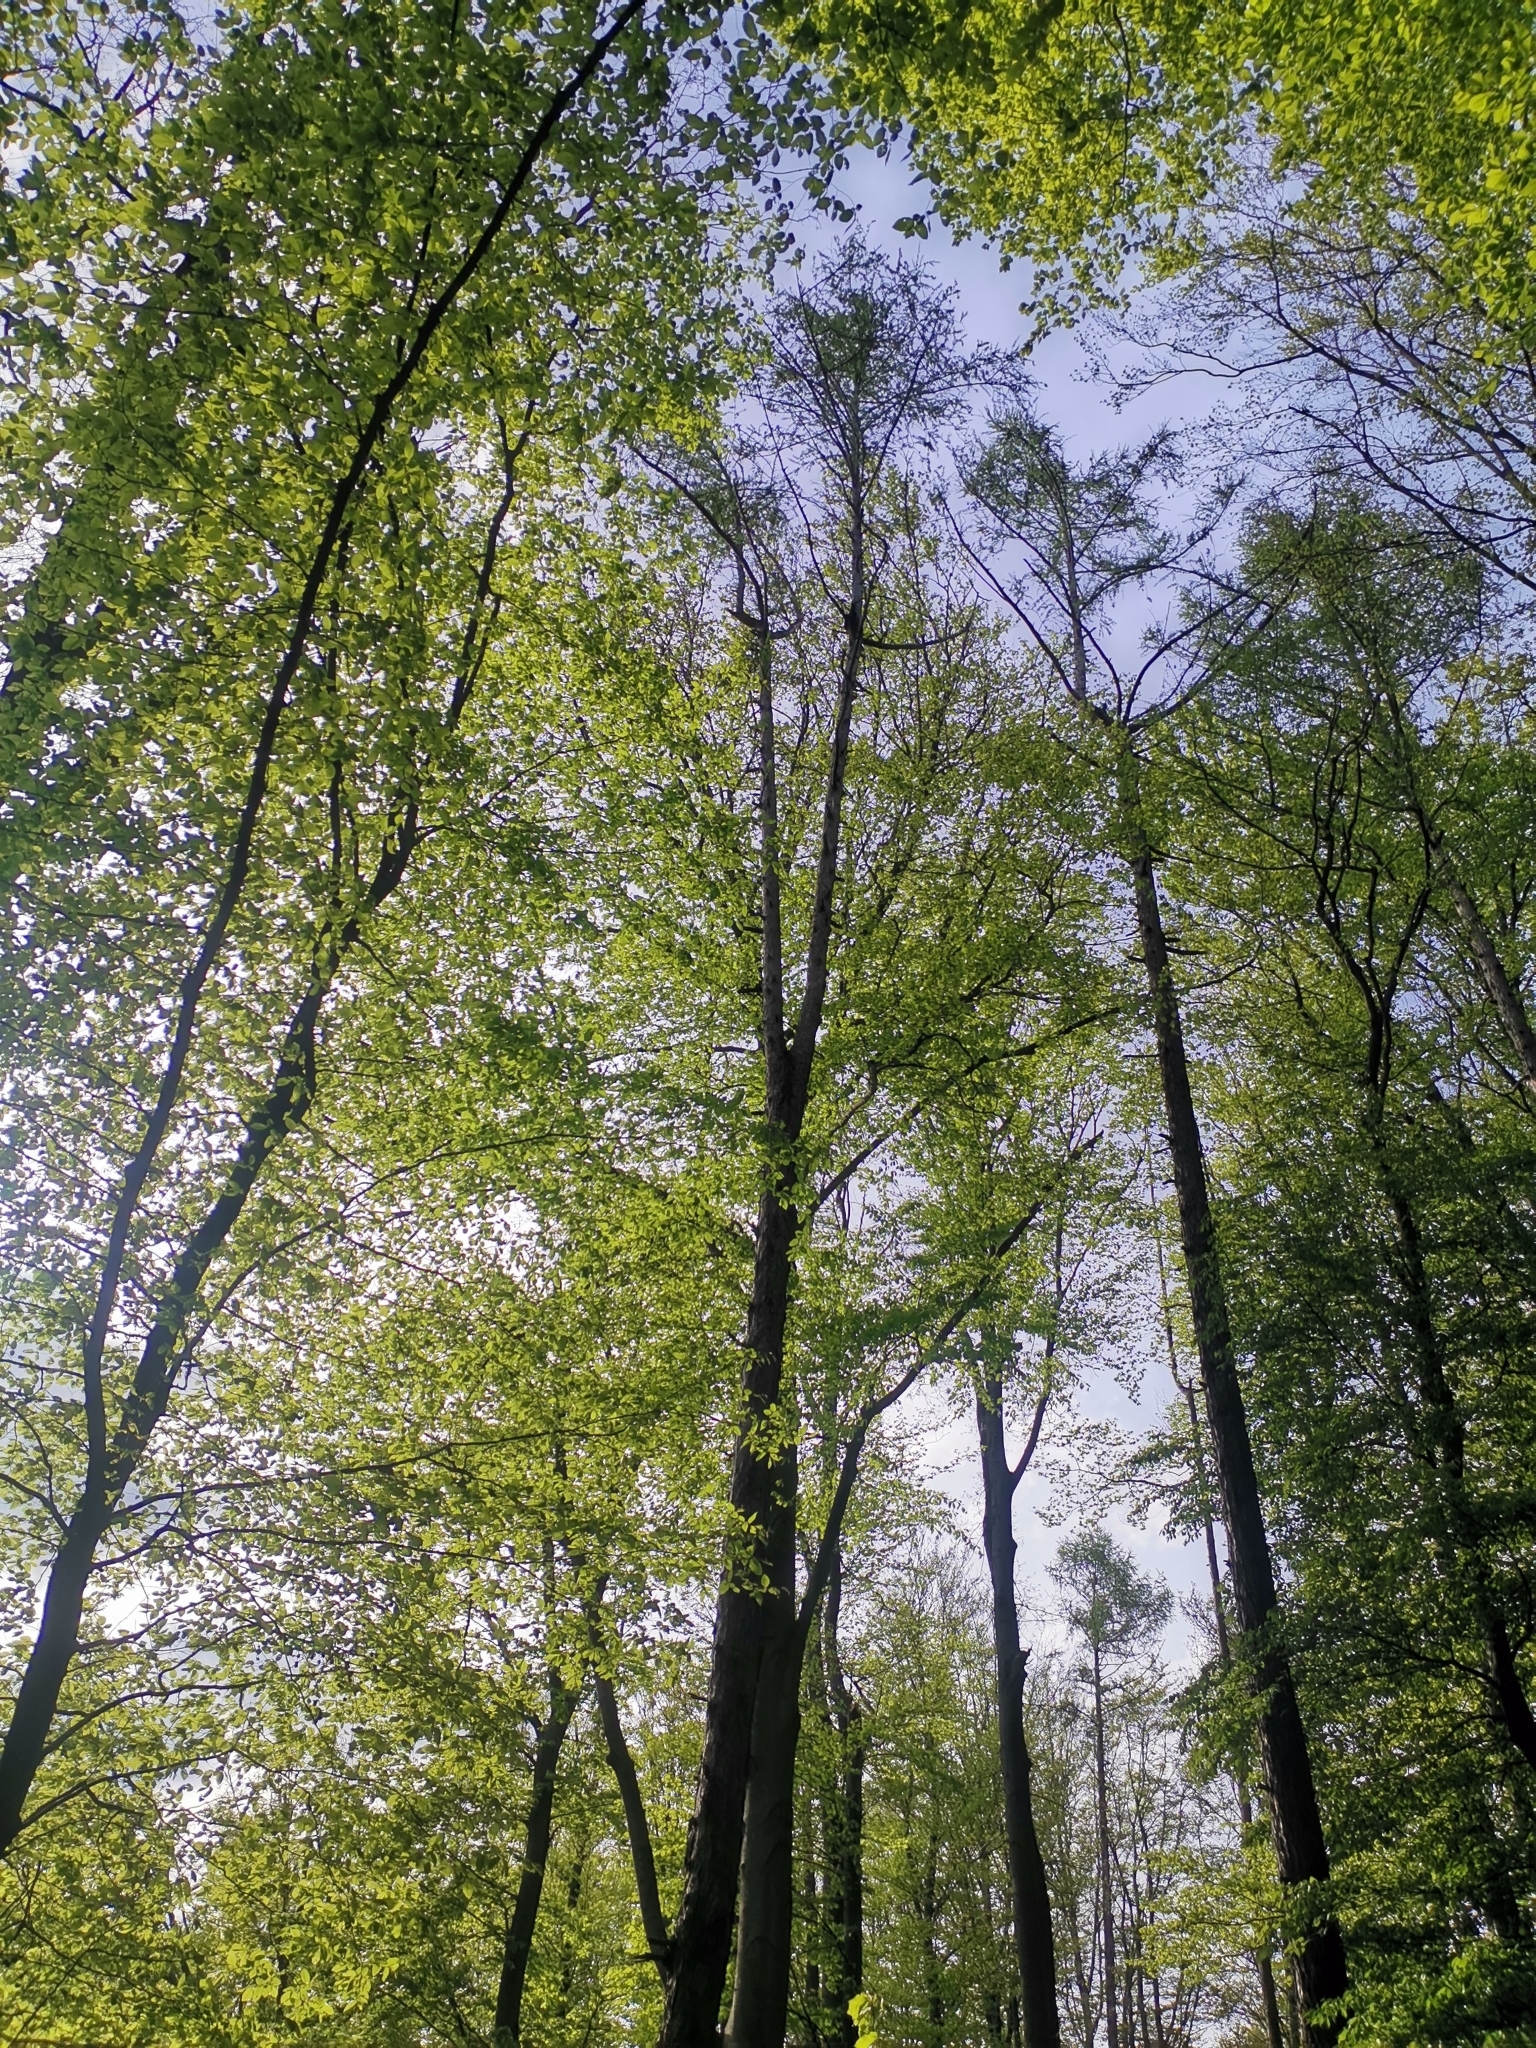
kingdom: Plantae
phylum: Tracheophyta
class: Pinopsida
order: Pinales
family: Pinaceae
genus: Larix
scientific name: Larix decidua
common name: European larch
